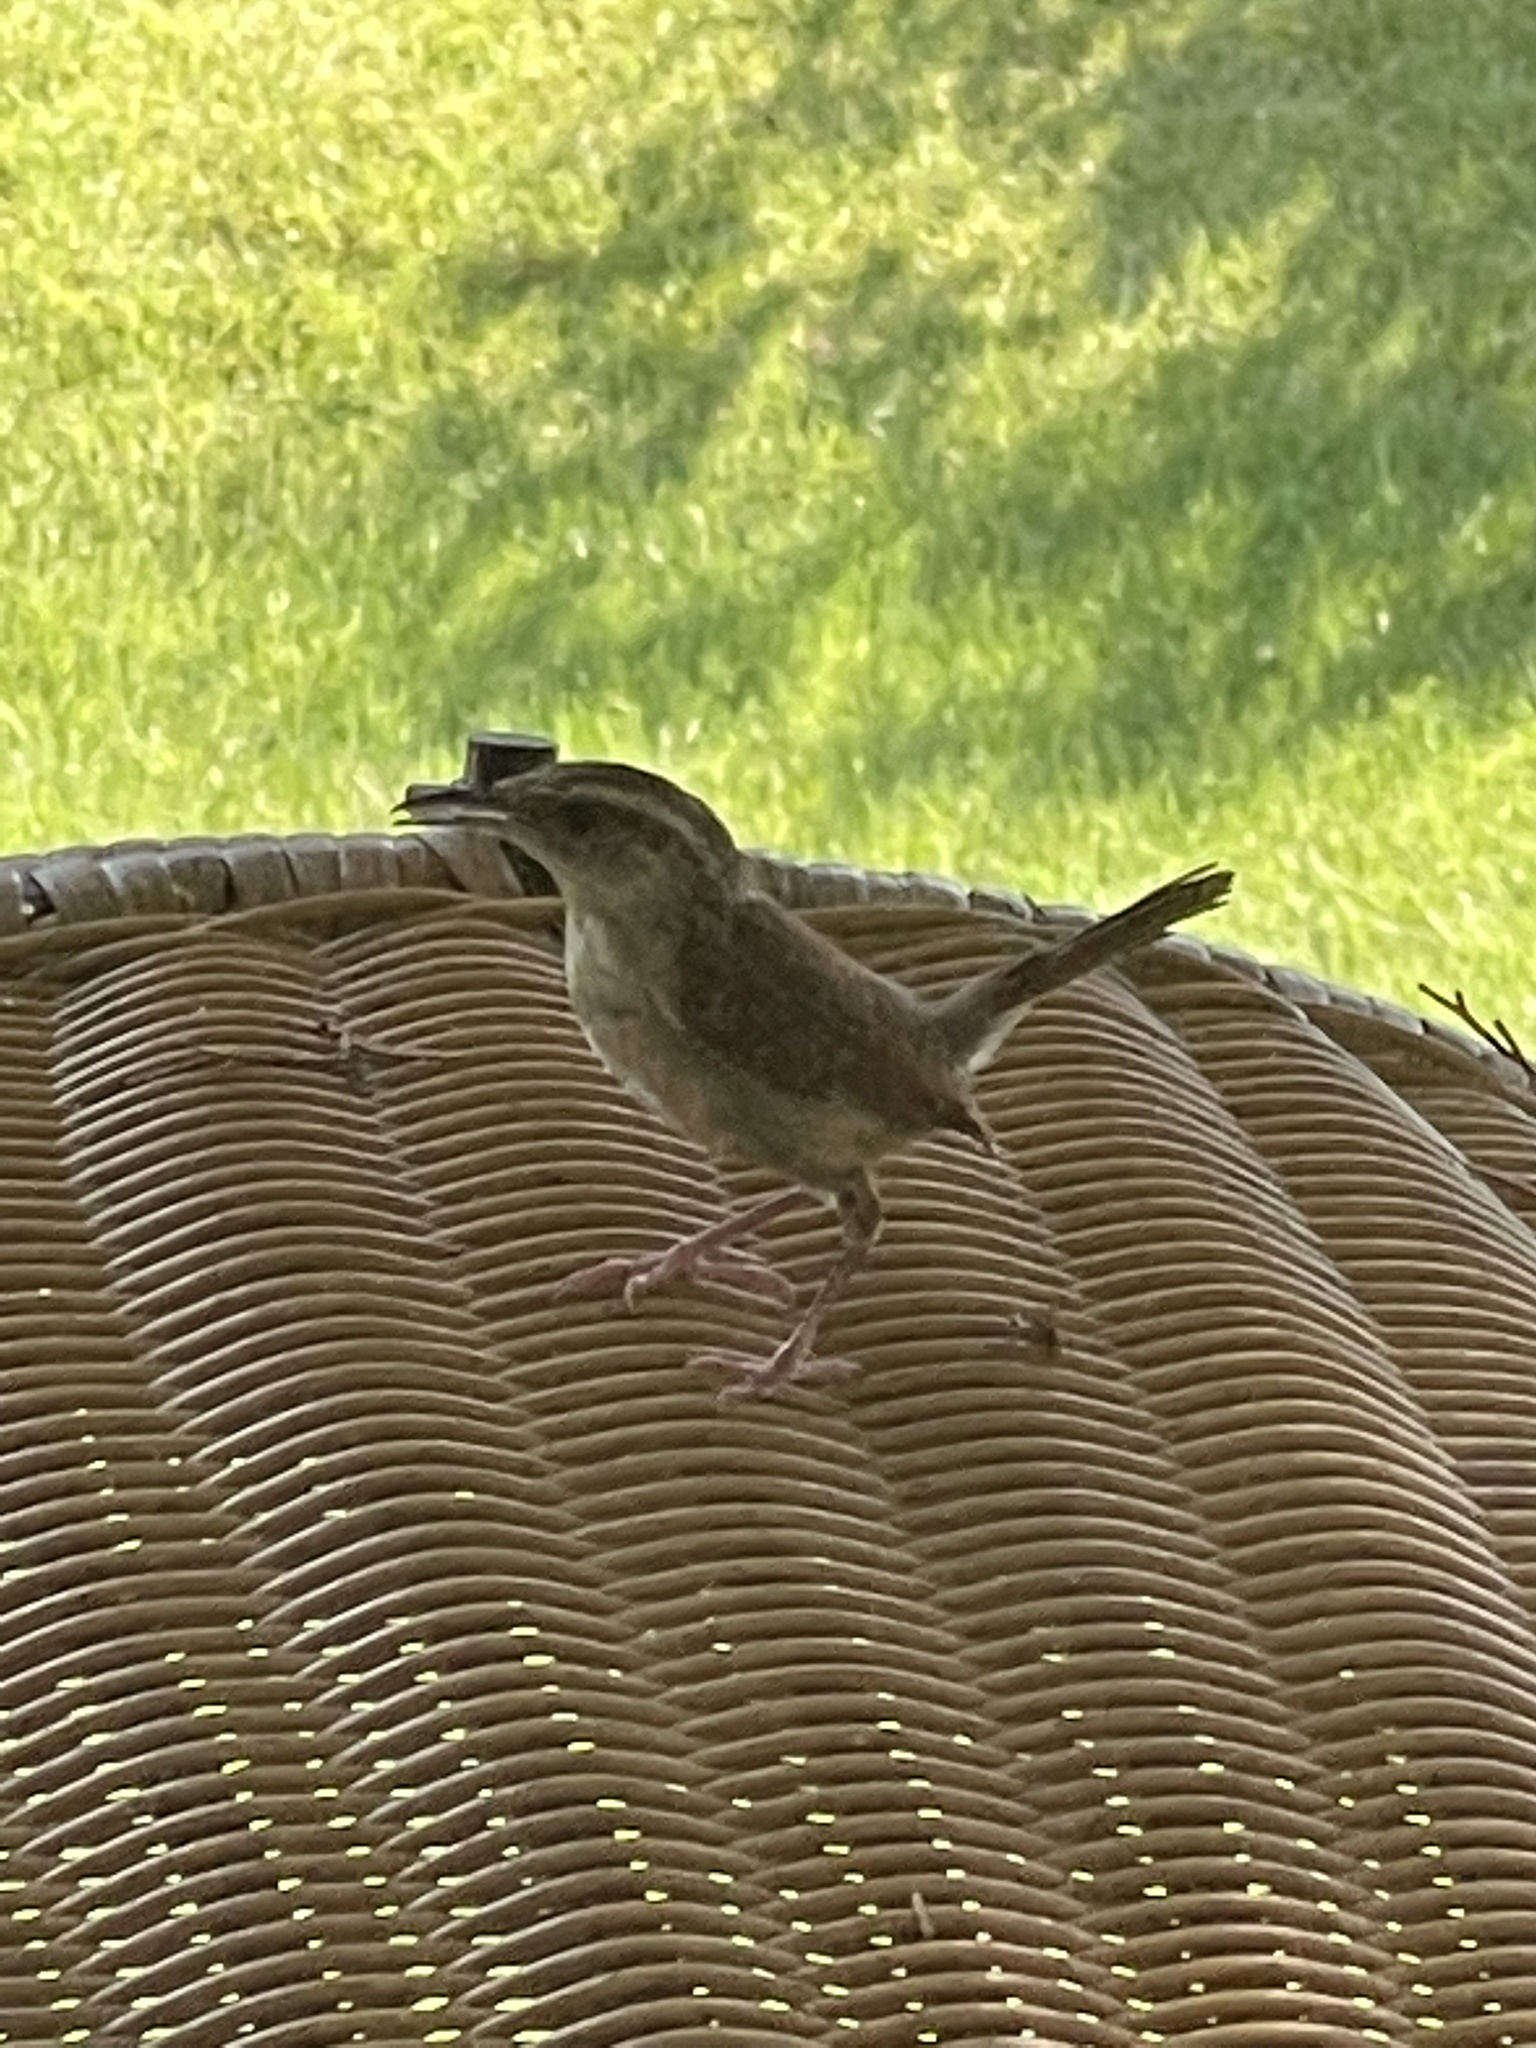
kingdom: Animalia
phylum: Chordata
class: Aves
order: Passeriformes
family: Troglodytidae
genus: Thryothorus
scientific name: Thryothorus ludovicianus
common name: Carolina wren
